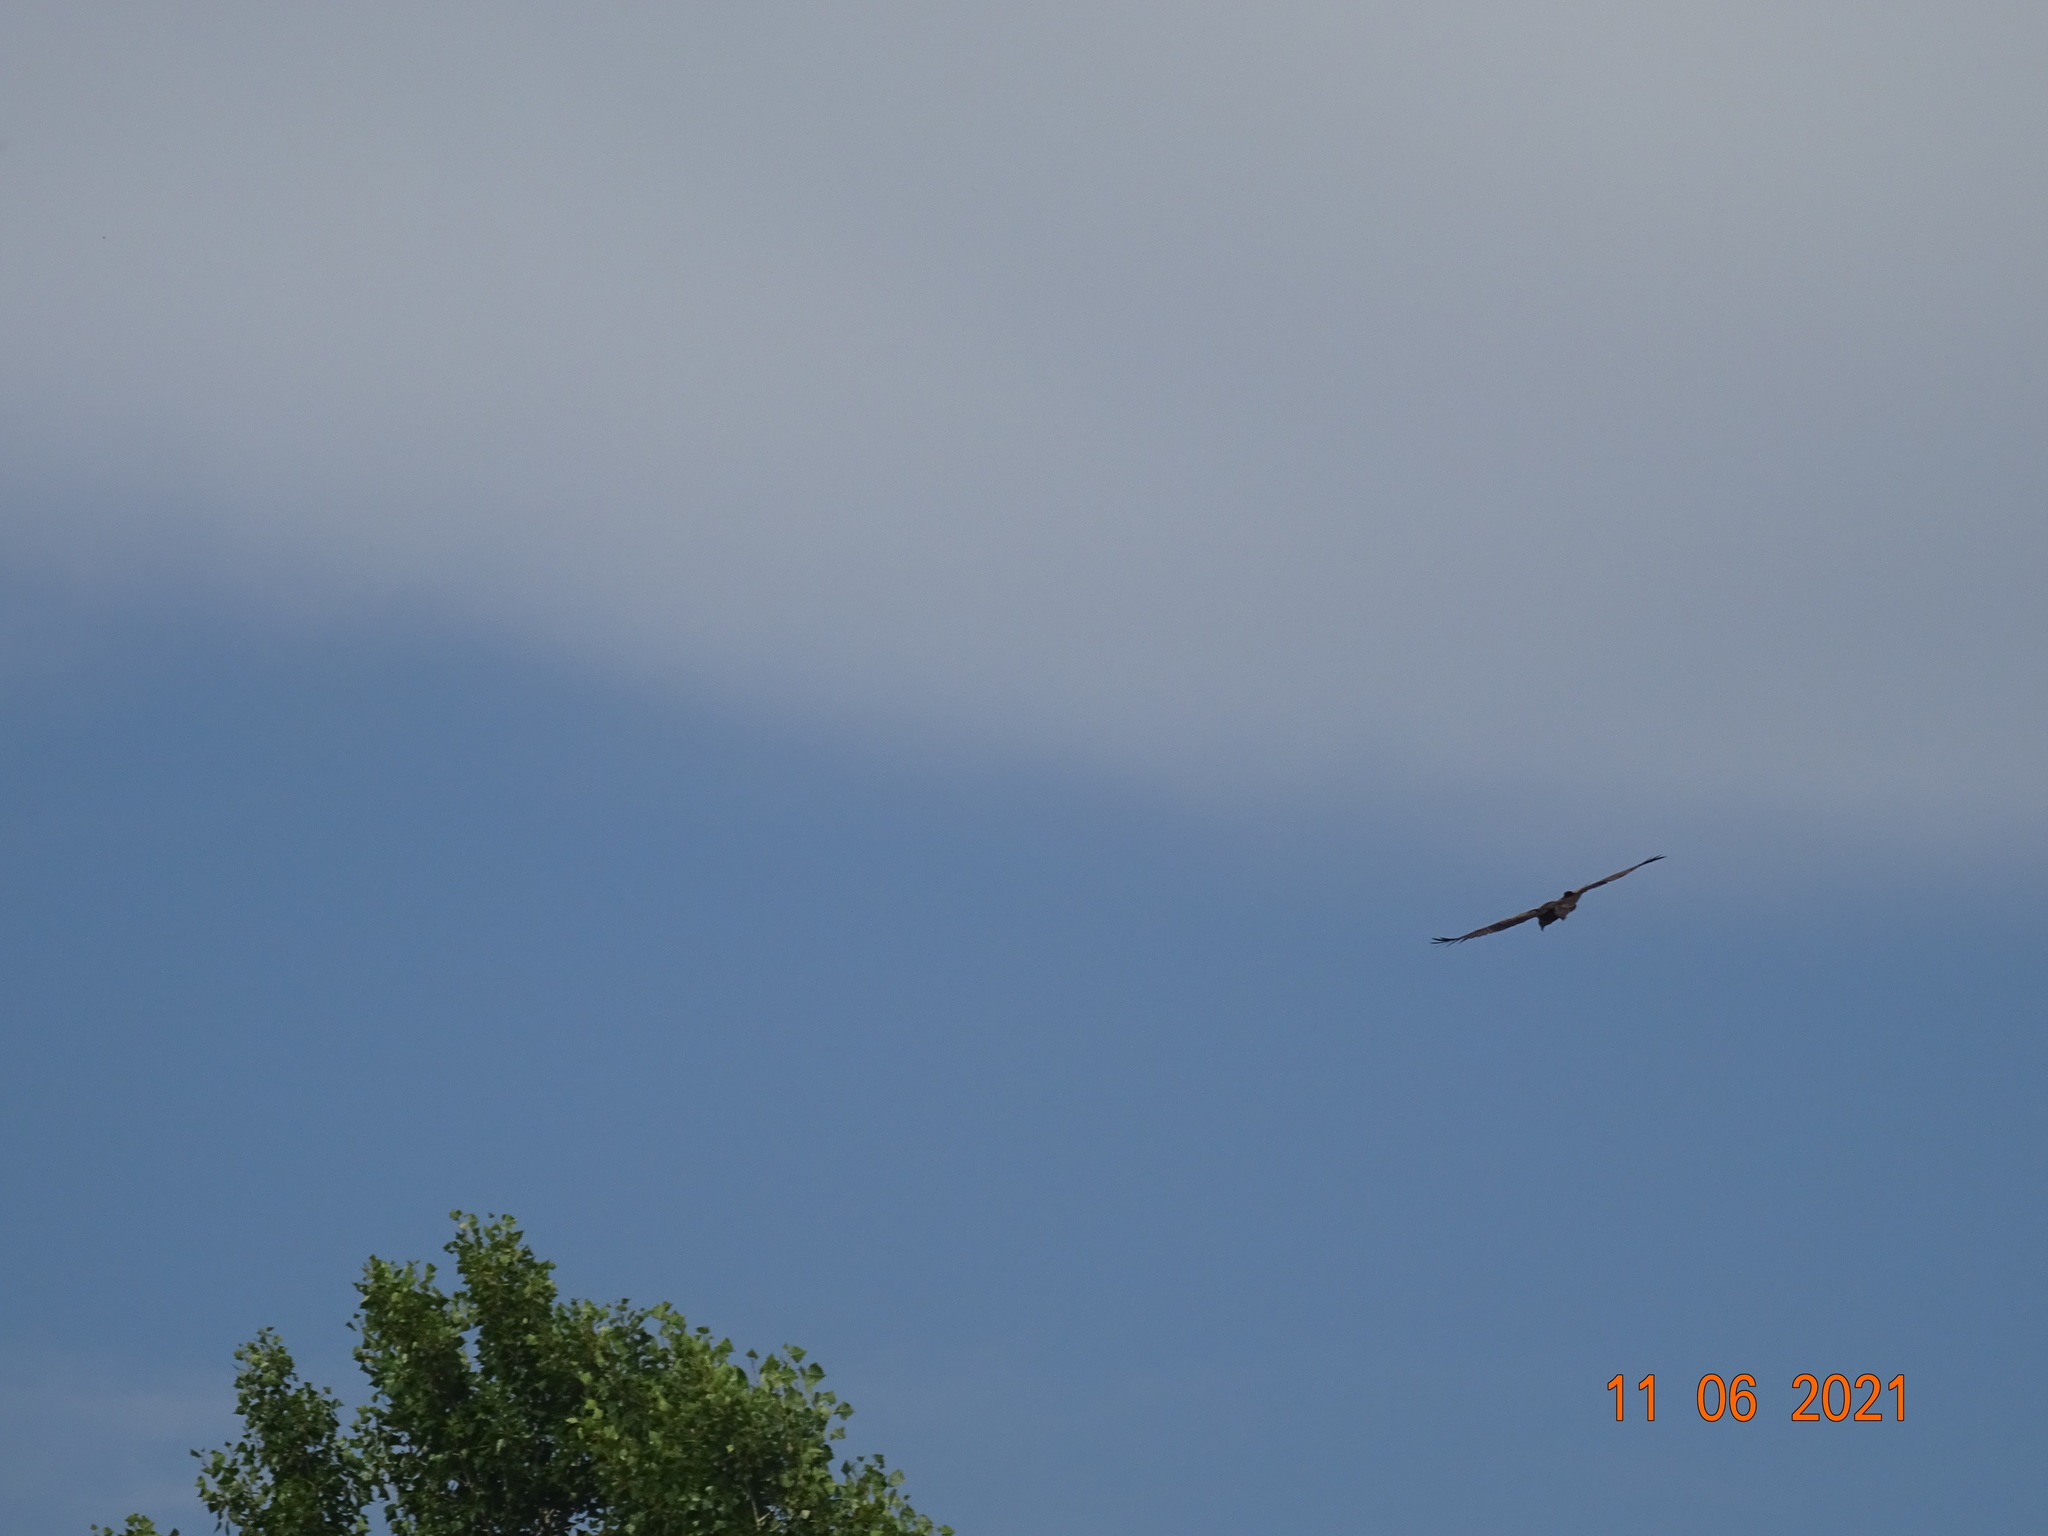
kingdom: Animalia
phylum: Chordata
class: Aves
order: Accipitriformes
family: Accipitridae
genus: Milvus
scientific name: Milvus migrans
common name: Black kite
